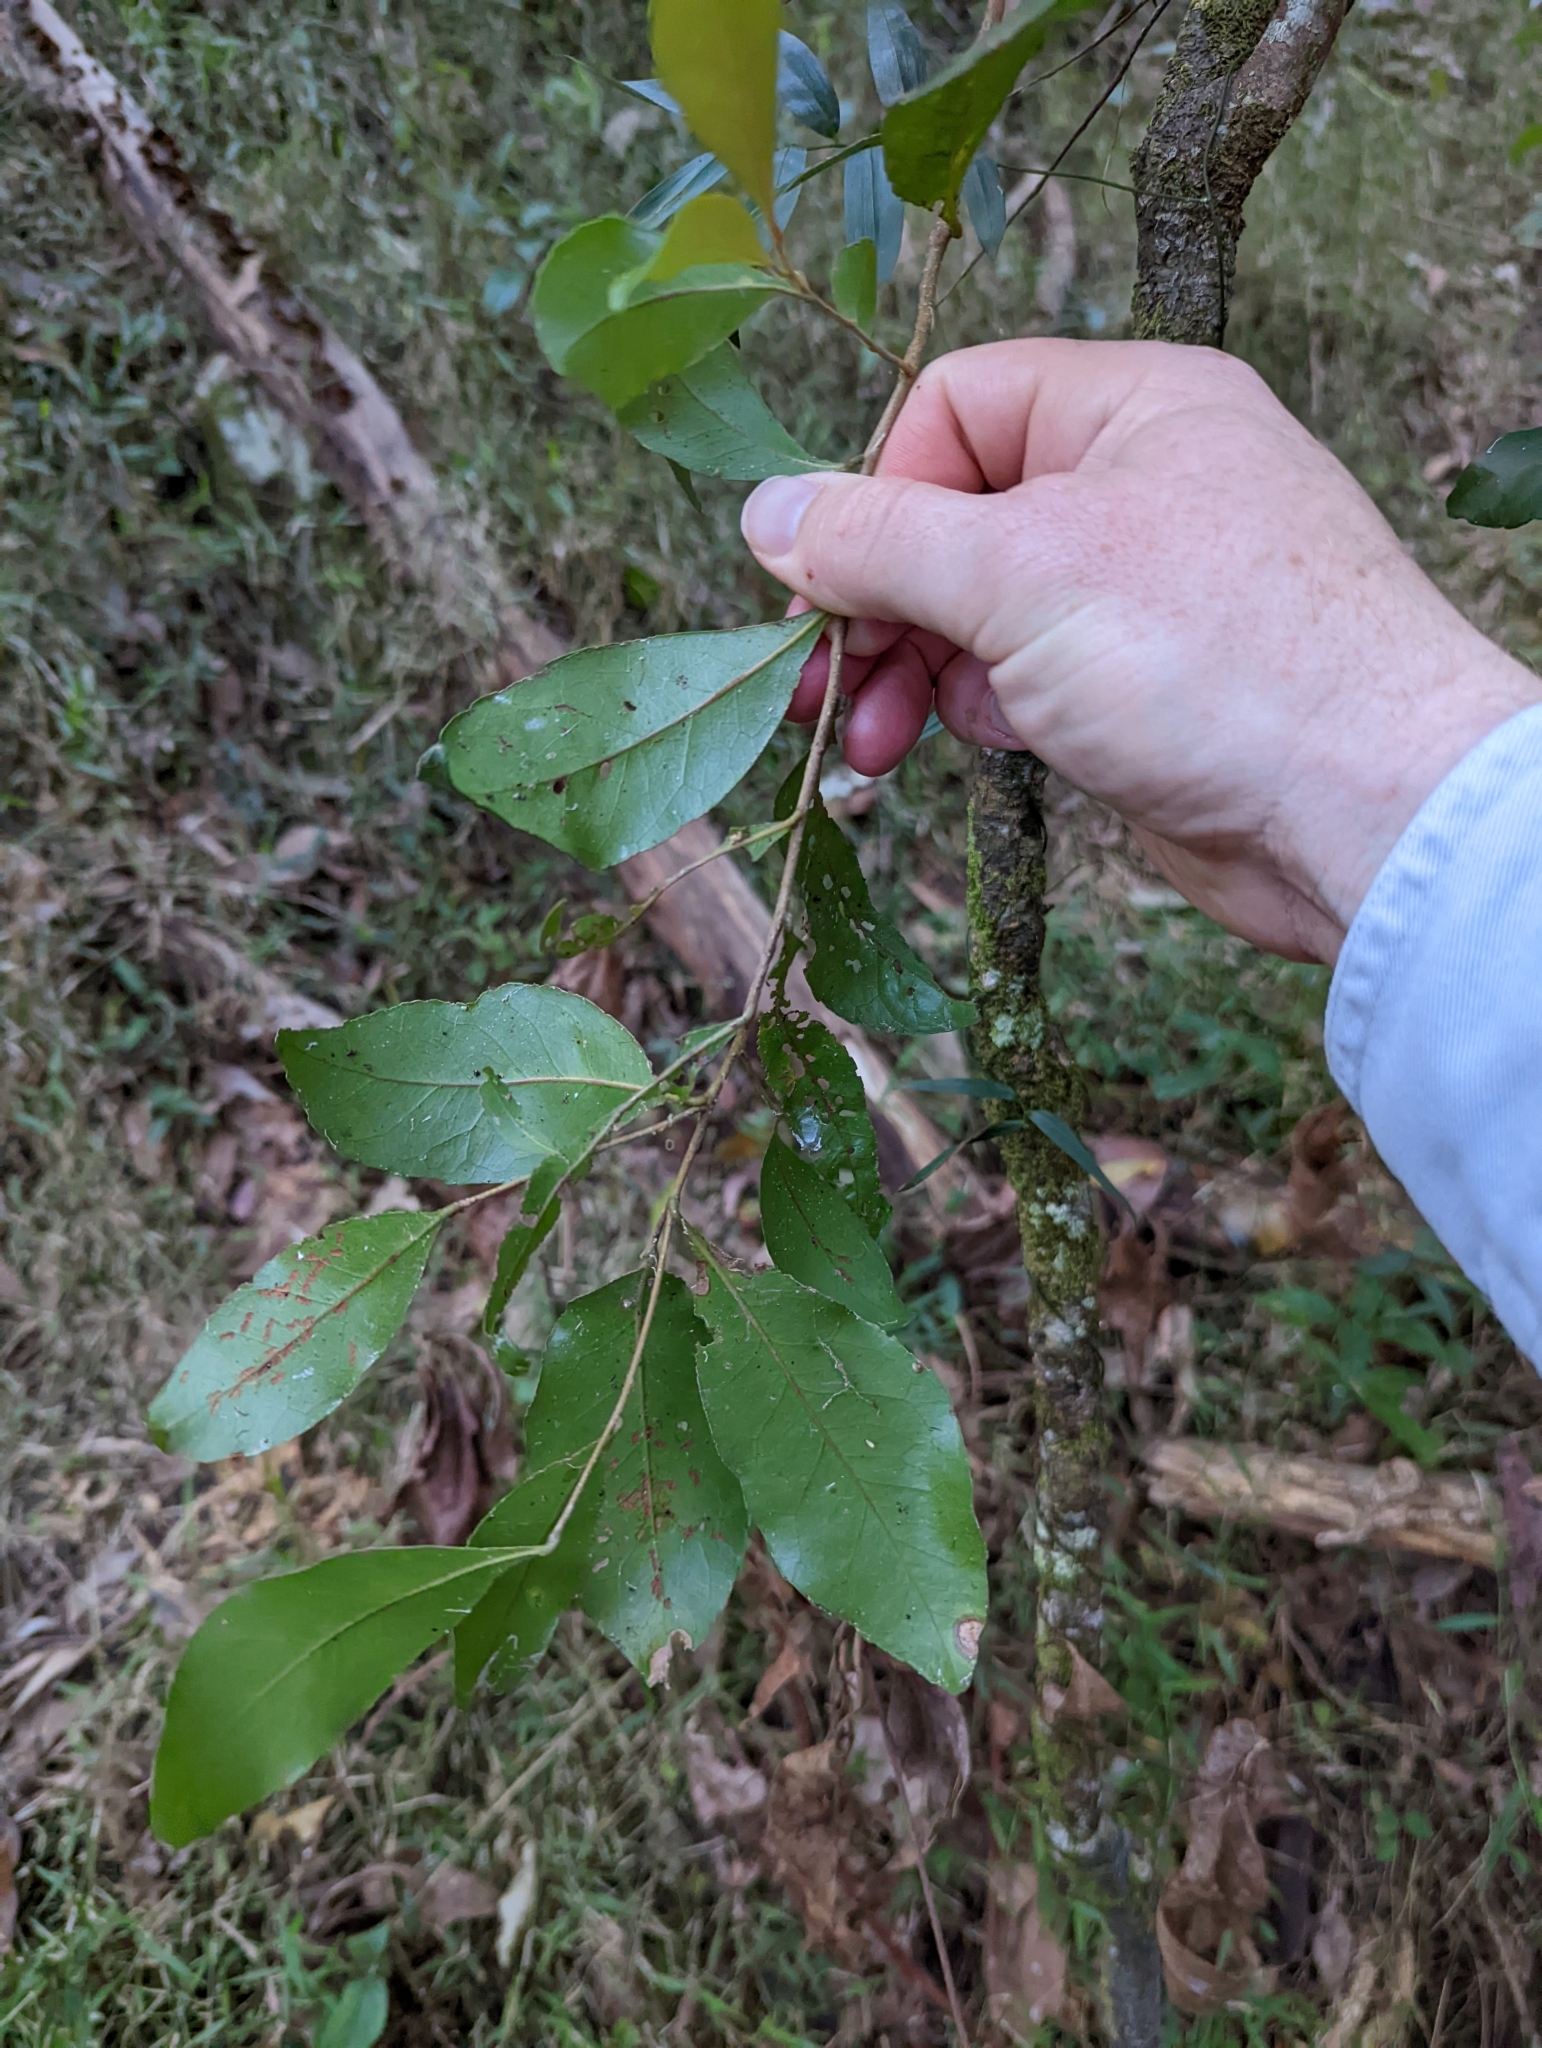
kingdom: Plantae
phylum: Tracheophyta
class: Magnoliopsida
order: Oxalidales
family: Elaeocarpaceae
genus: Elaeocarpus
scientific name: Elaeocarpus obovatus
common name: Freckled oliveberry
